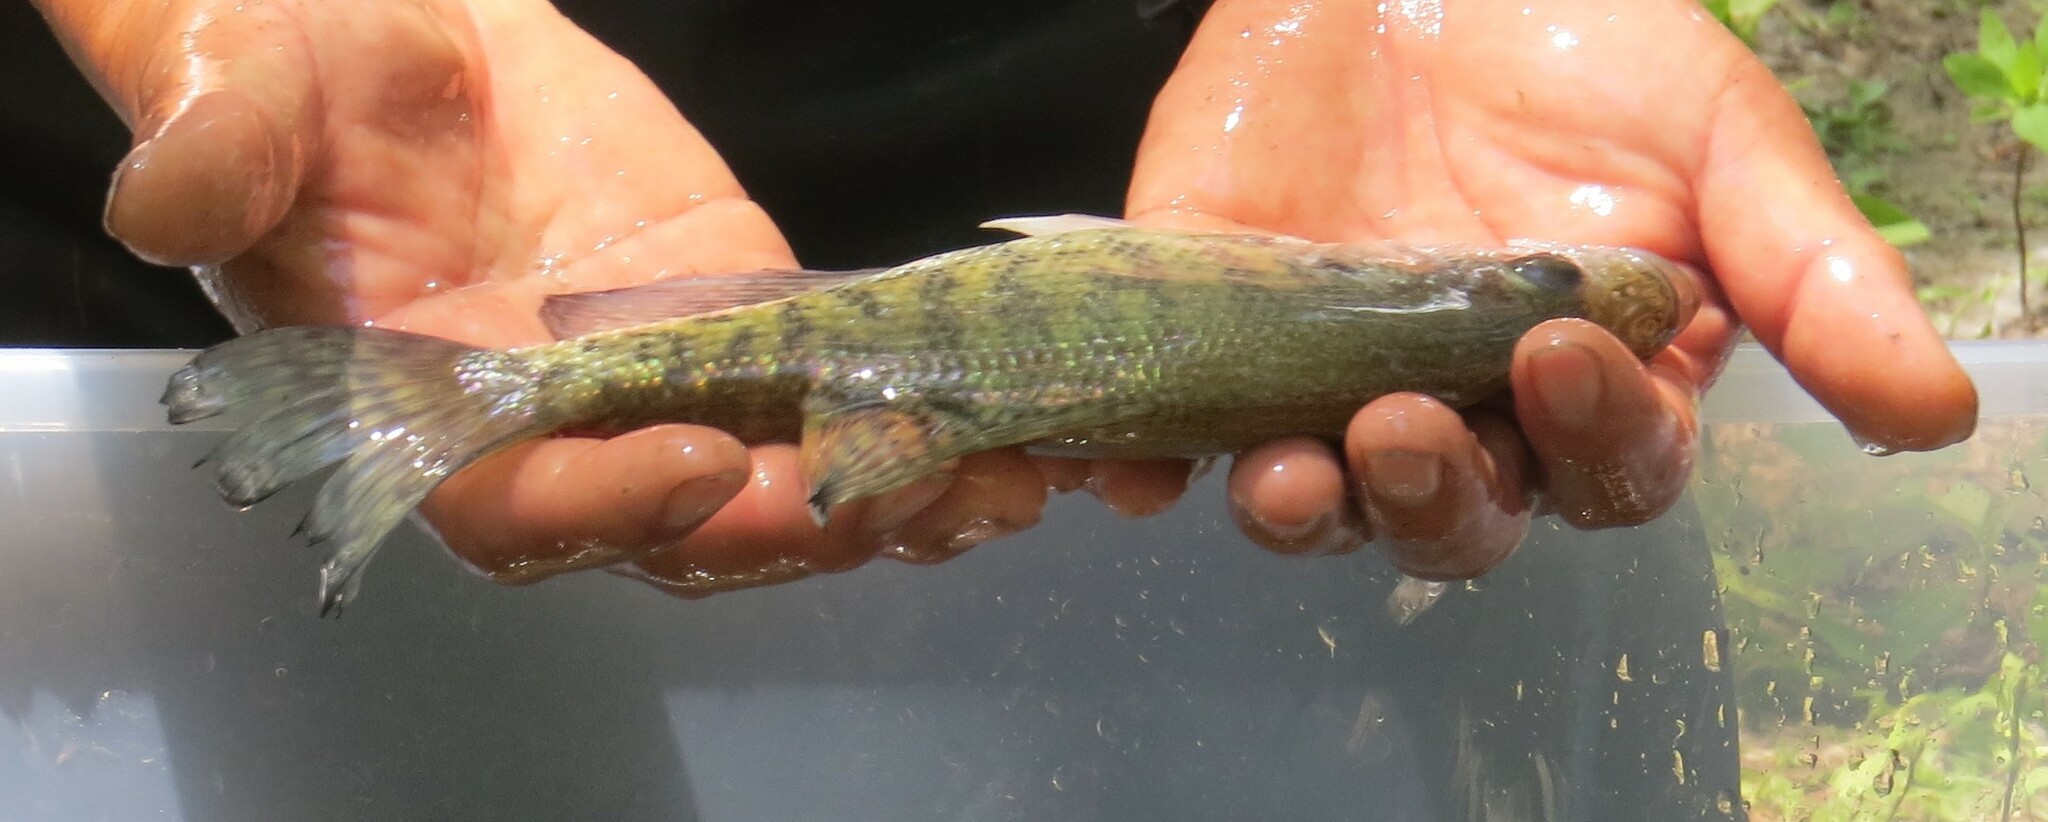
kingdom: Animalia
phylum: Chordata
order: Perciformes
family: Centrarchidae
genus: Pomoxis
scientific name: Pomoxis annularis
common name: White crappie
